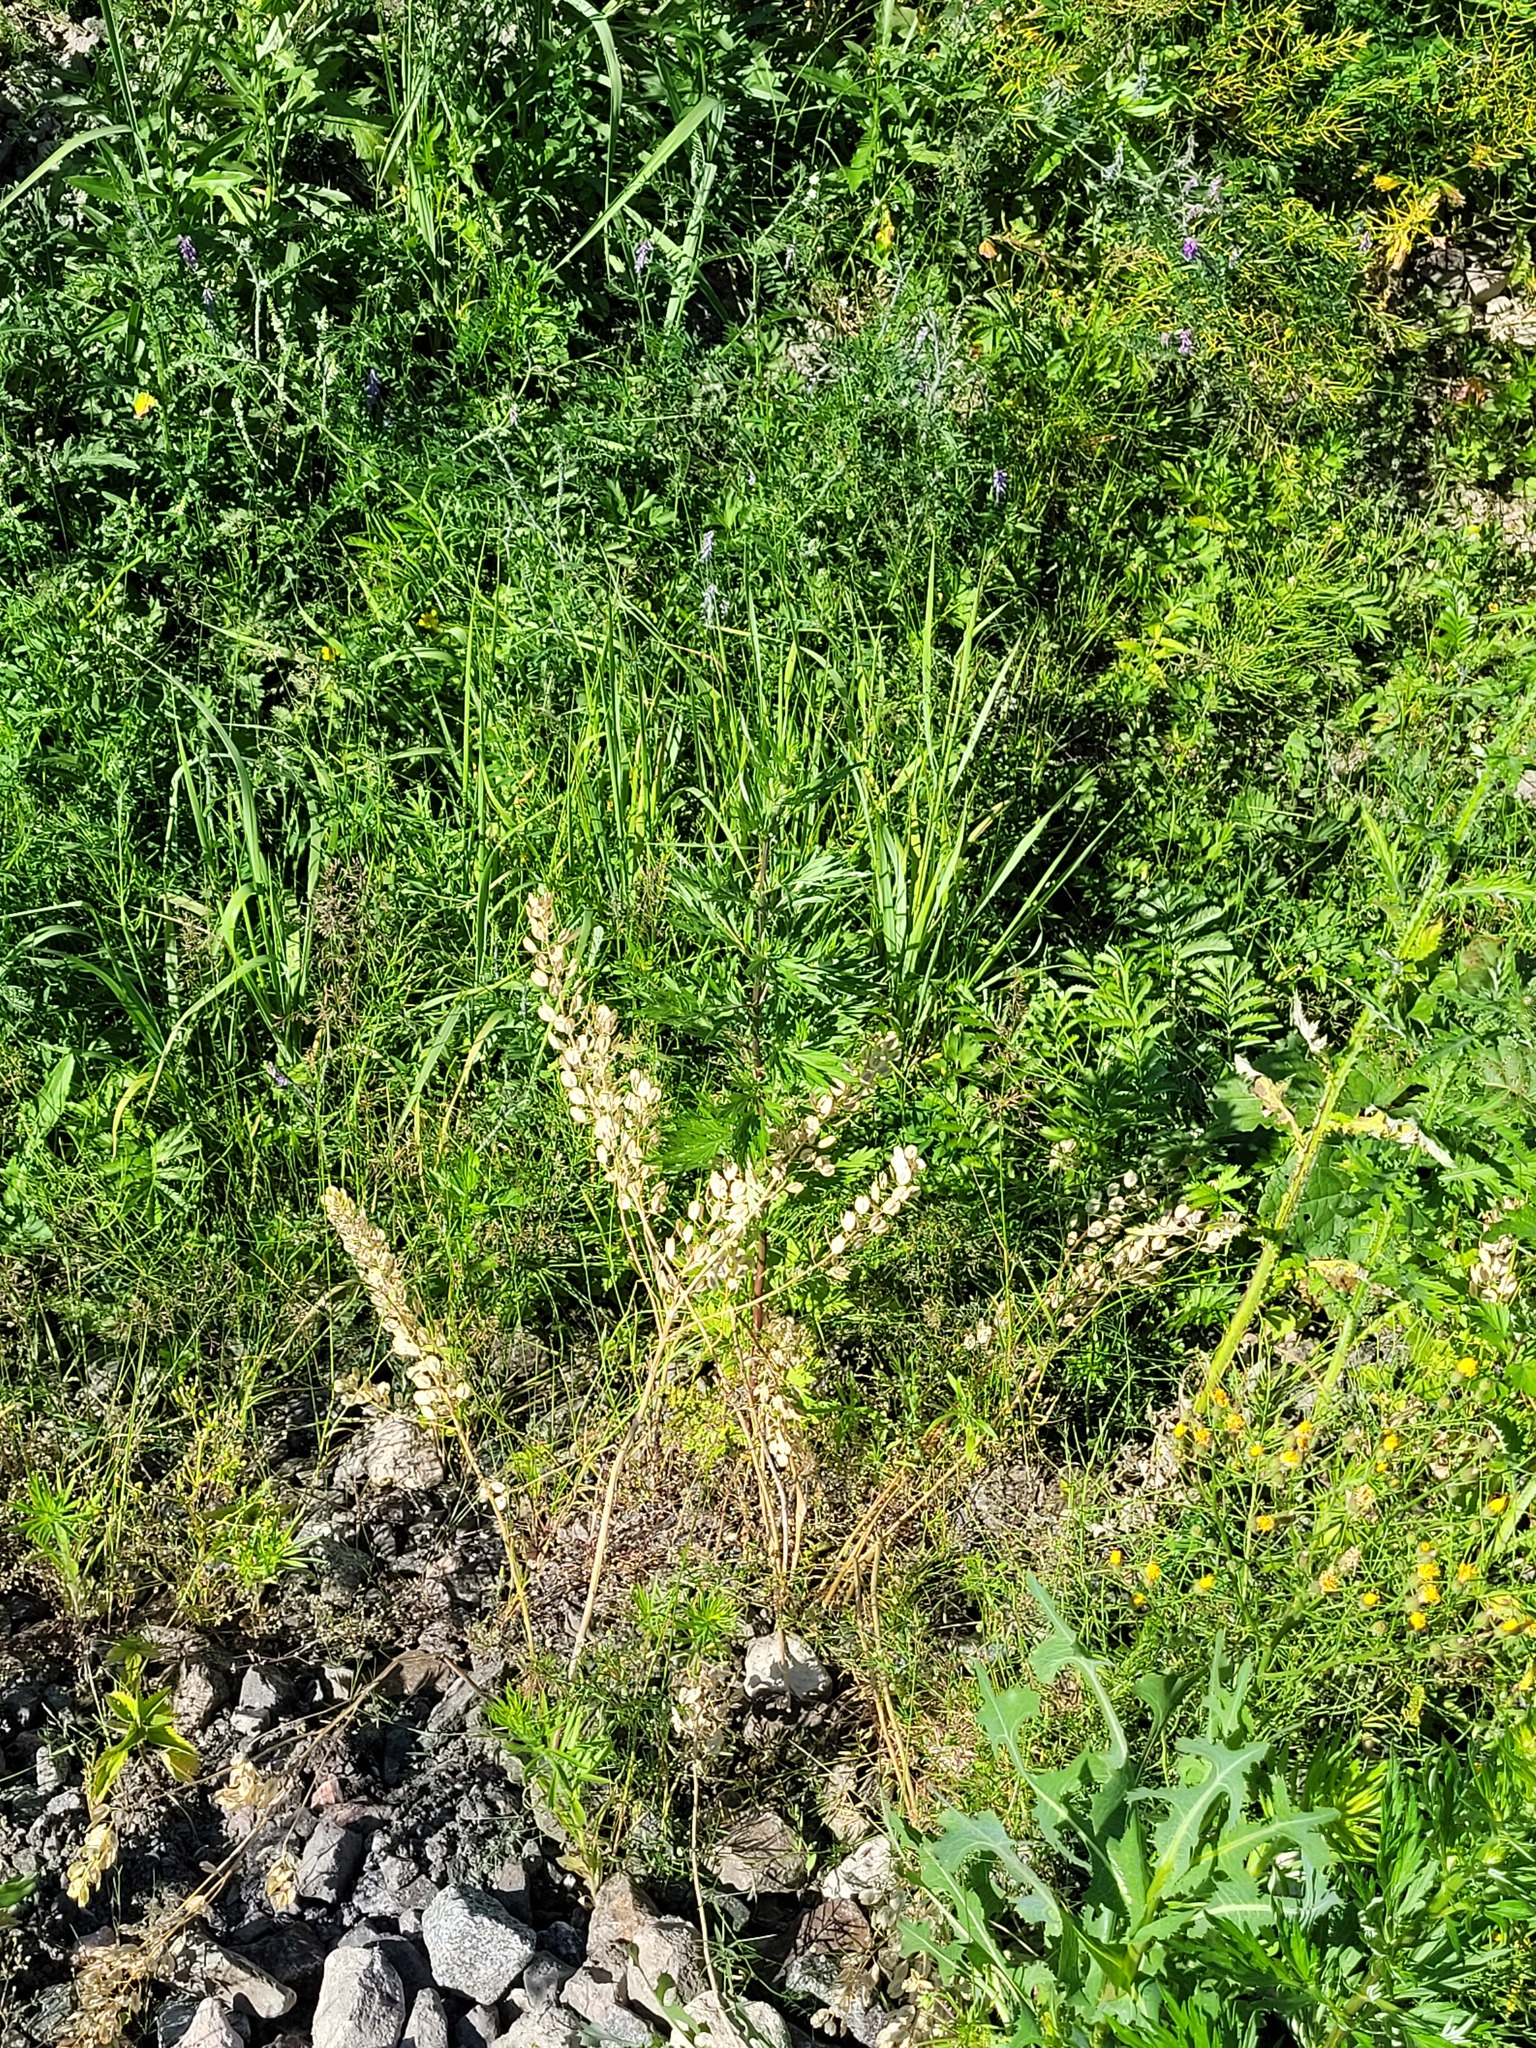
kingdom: Plantae
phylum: Tracheophyta
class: Magnoliopsida
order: Brassicales
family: Brassicaceae
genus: Thlaspi
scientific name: Thlaspi arvense
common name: Field pennycress
